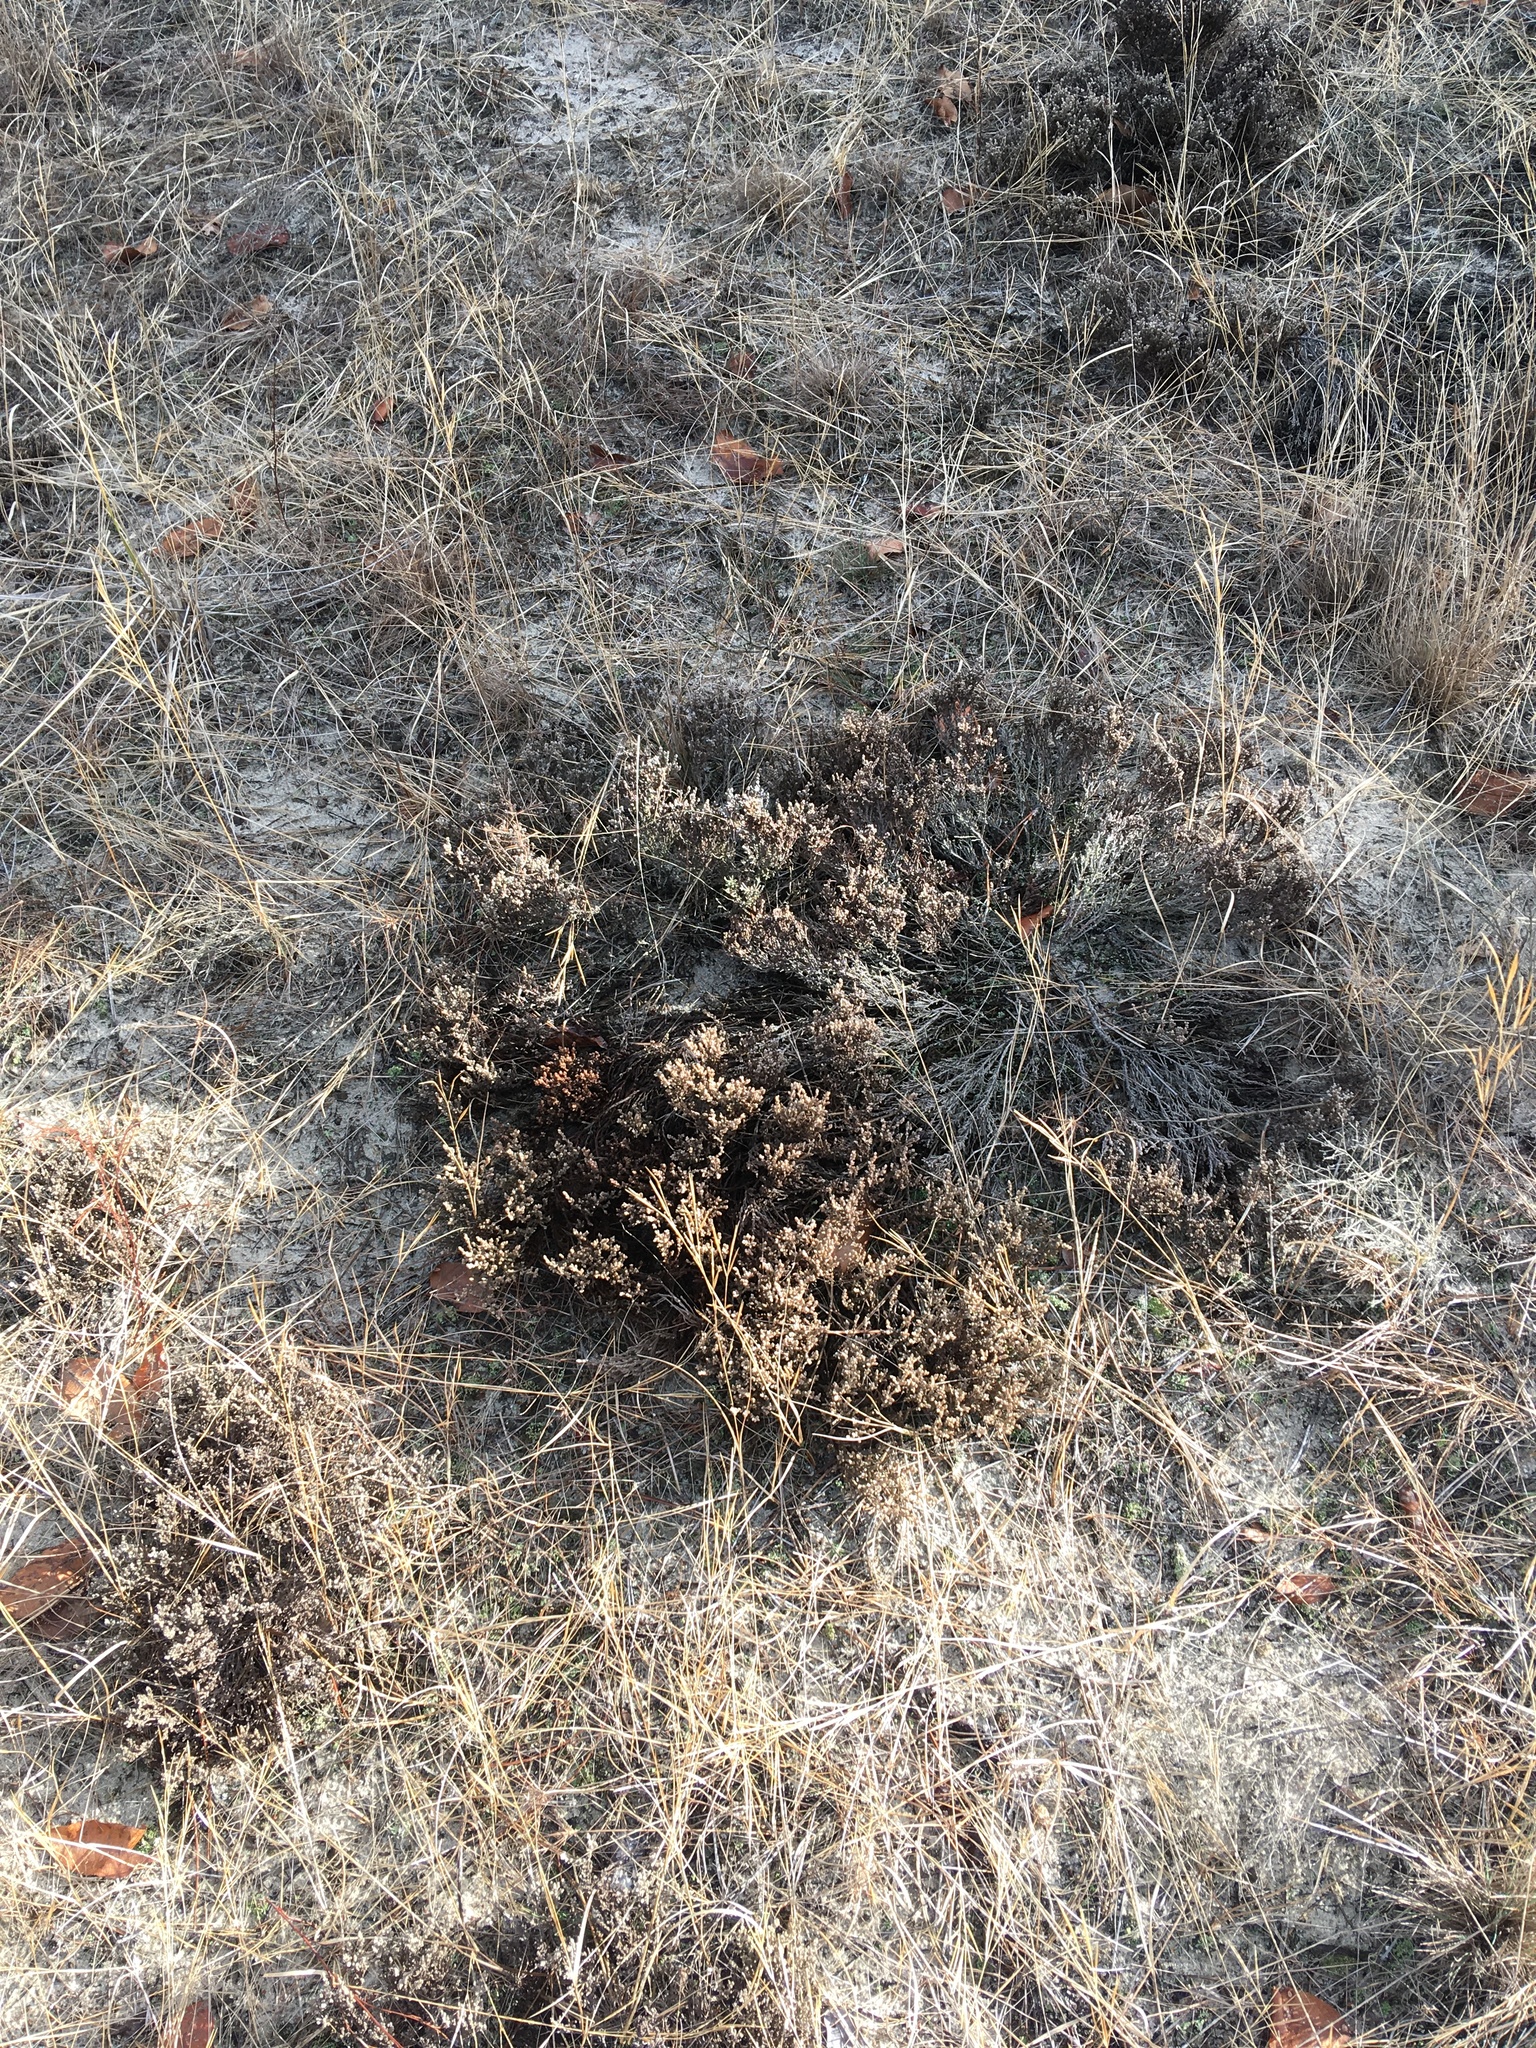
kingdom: Plantae
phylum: Tracheophyta
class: Magnoliopsida
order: Malvales
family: Cistaceae
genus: Hudsonia
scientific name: Hudsonia tomentosa
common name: Beach-heath
